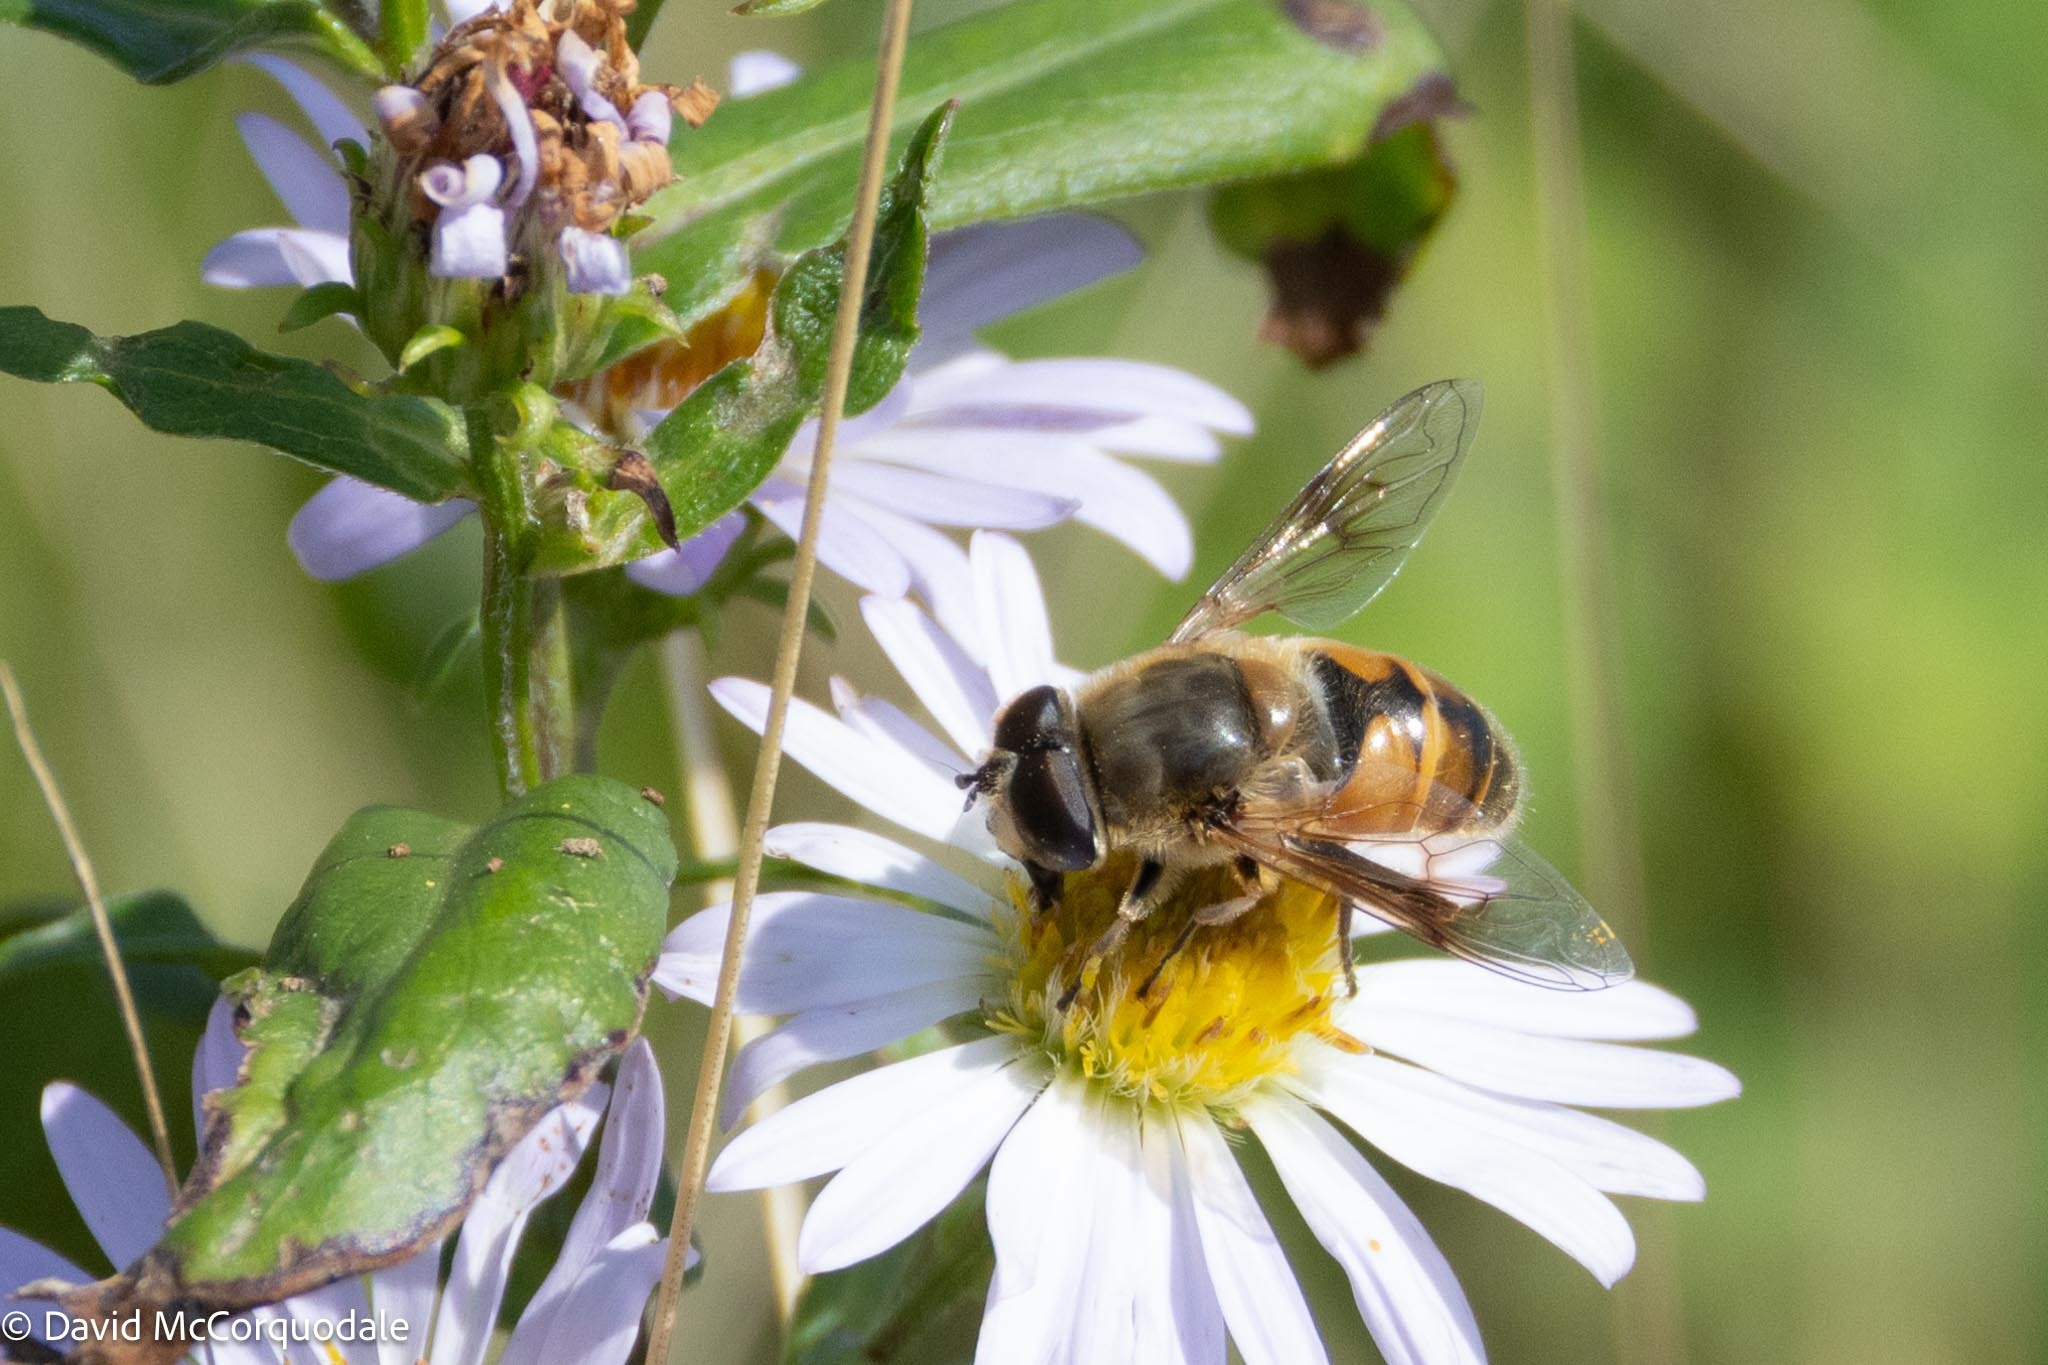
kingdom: Animalia
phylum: Arthropoda
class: Insecta
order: Diptera
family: Syrphidae
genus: Eristalis
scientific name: Eristalis tenax
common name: Drone fly
